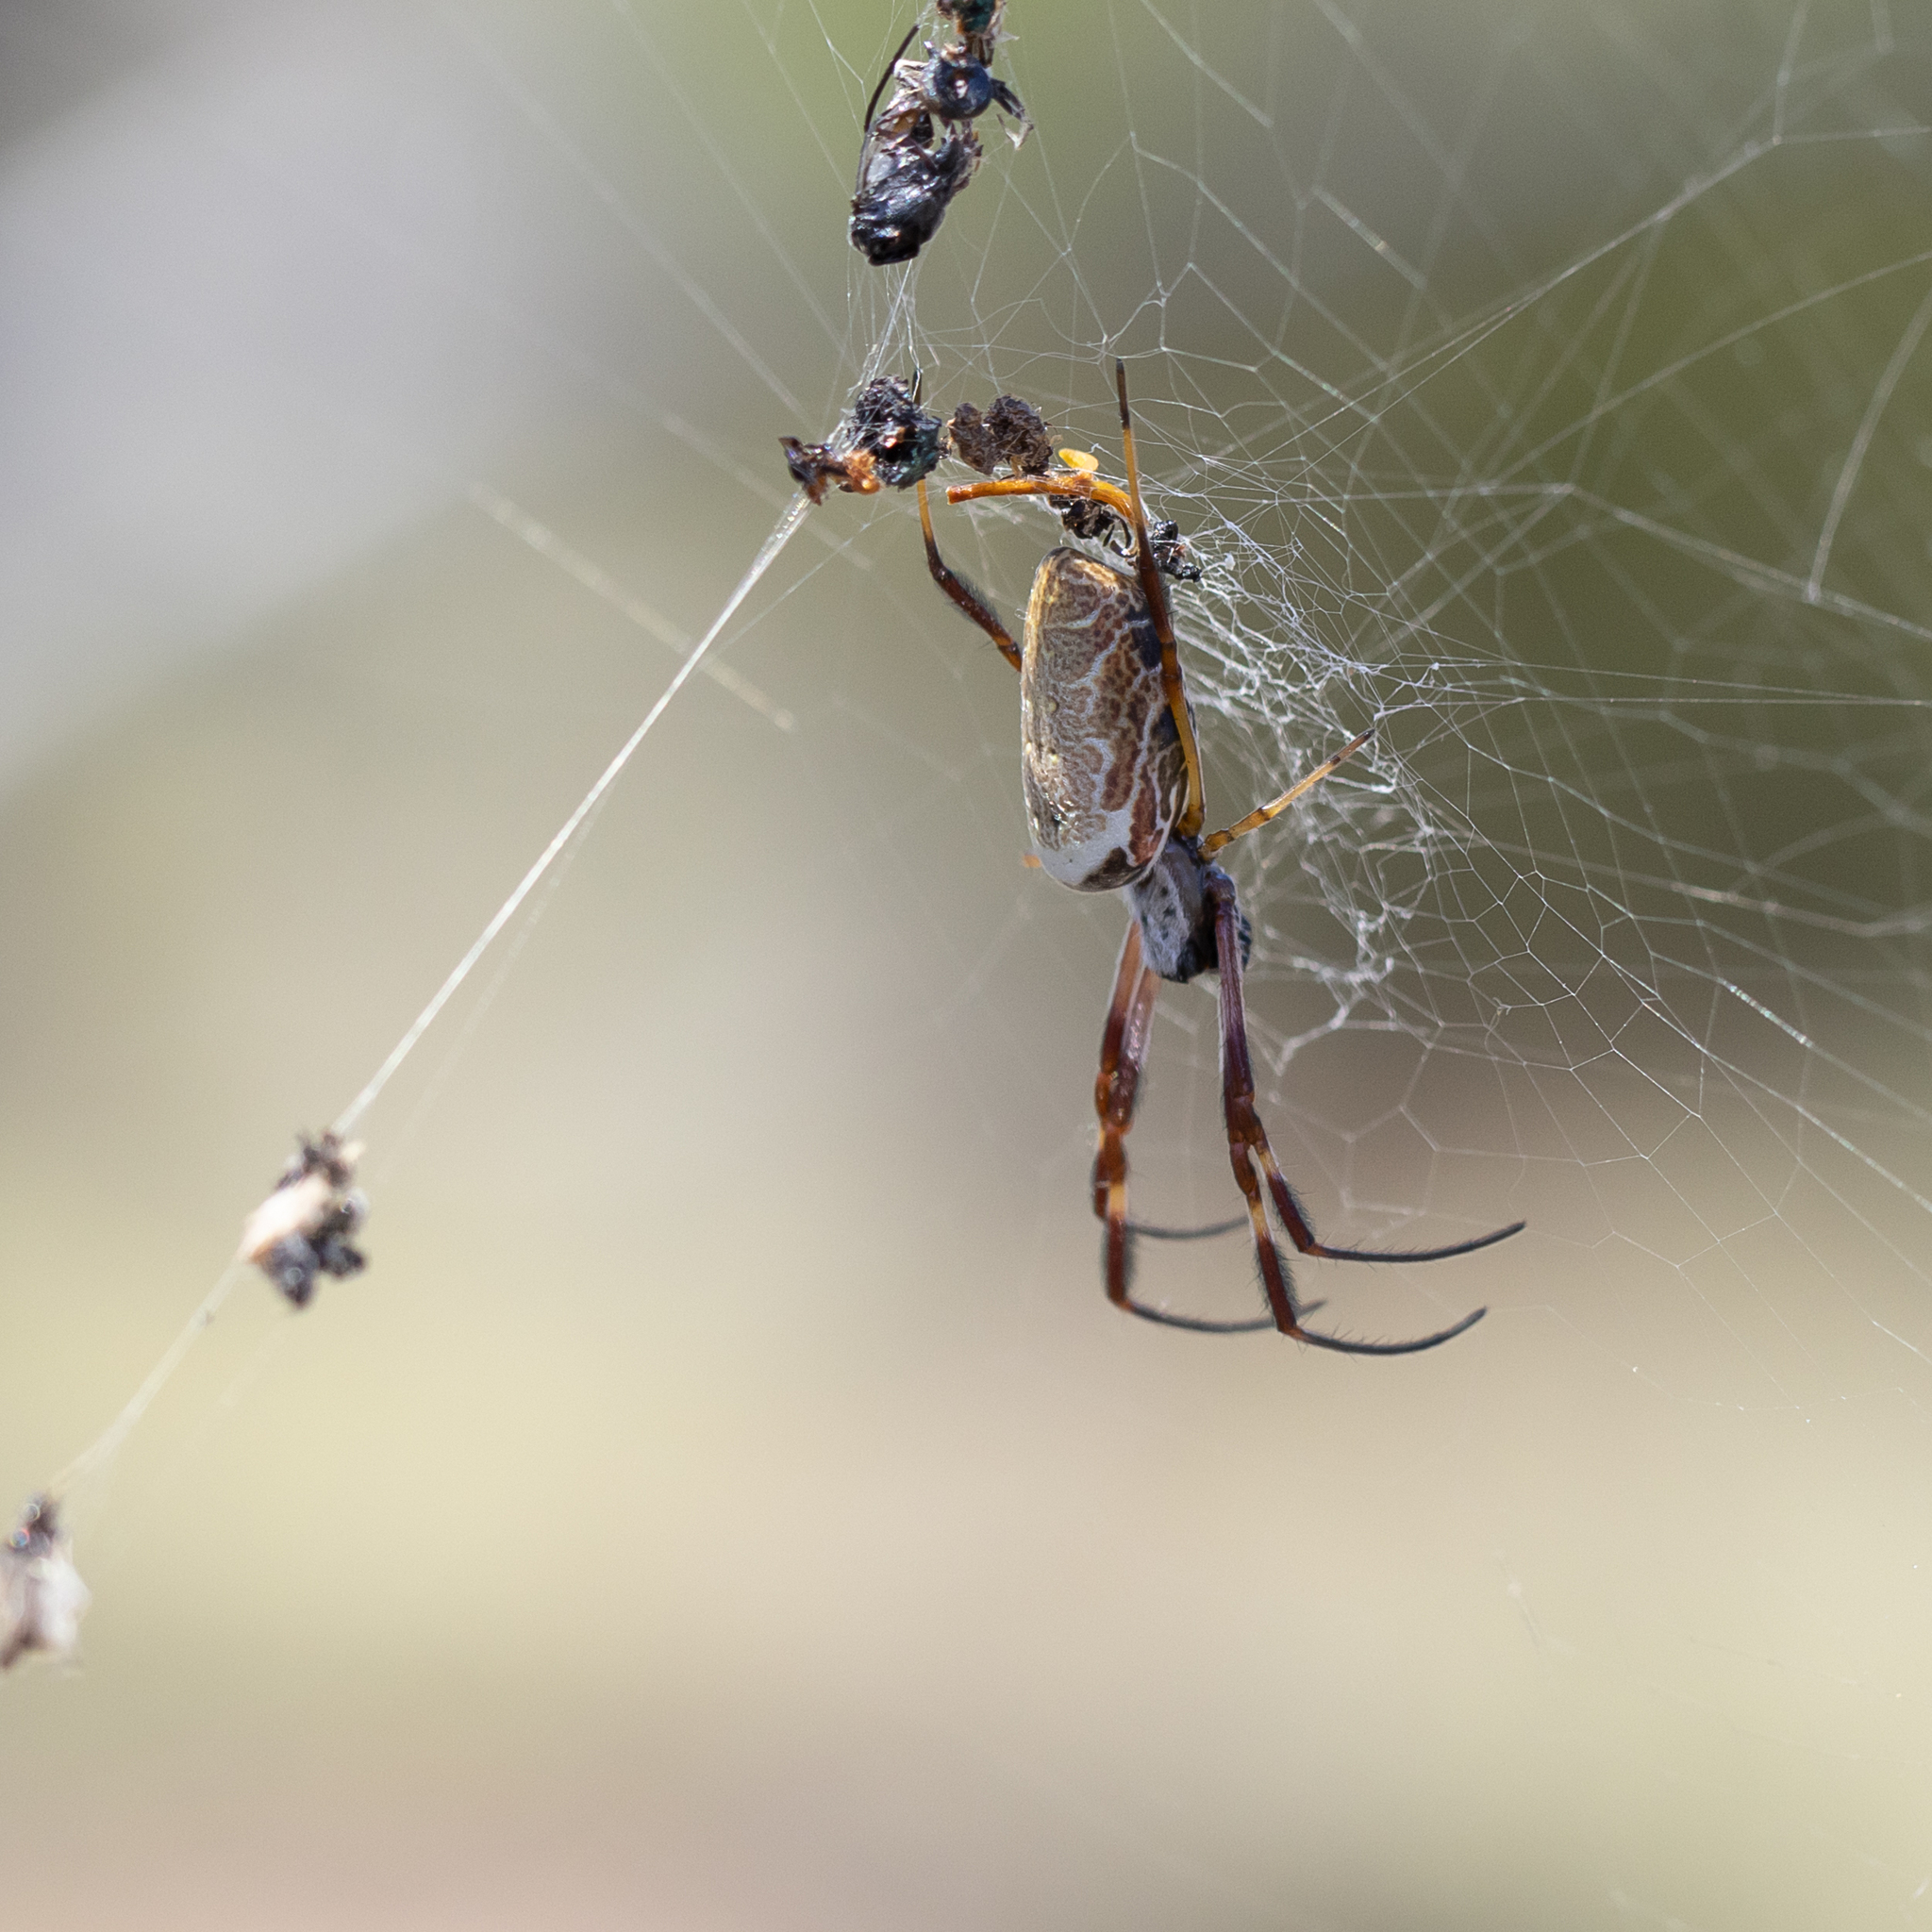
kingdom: Animalia
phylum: Arthropoda
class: Arachnida
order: Araneae
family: Araneidae
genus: Trichonephila
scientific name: Trichonephila edulis
